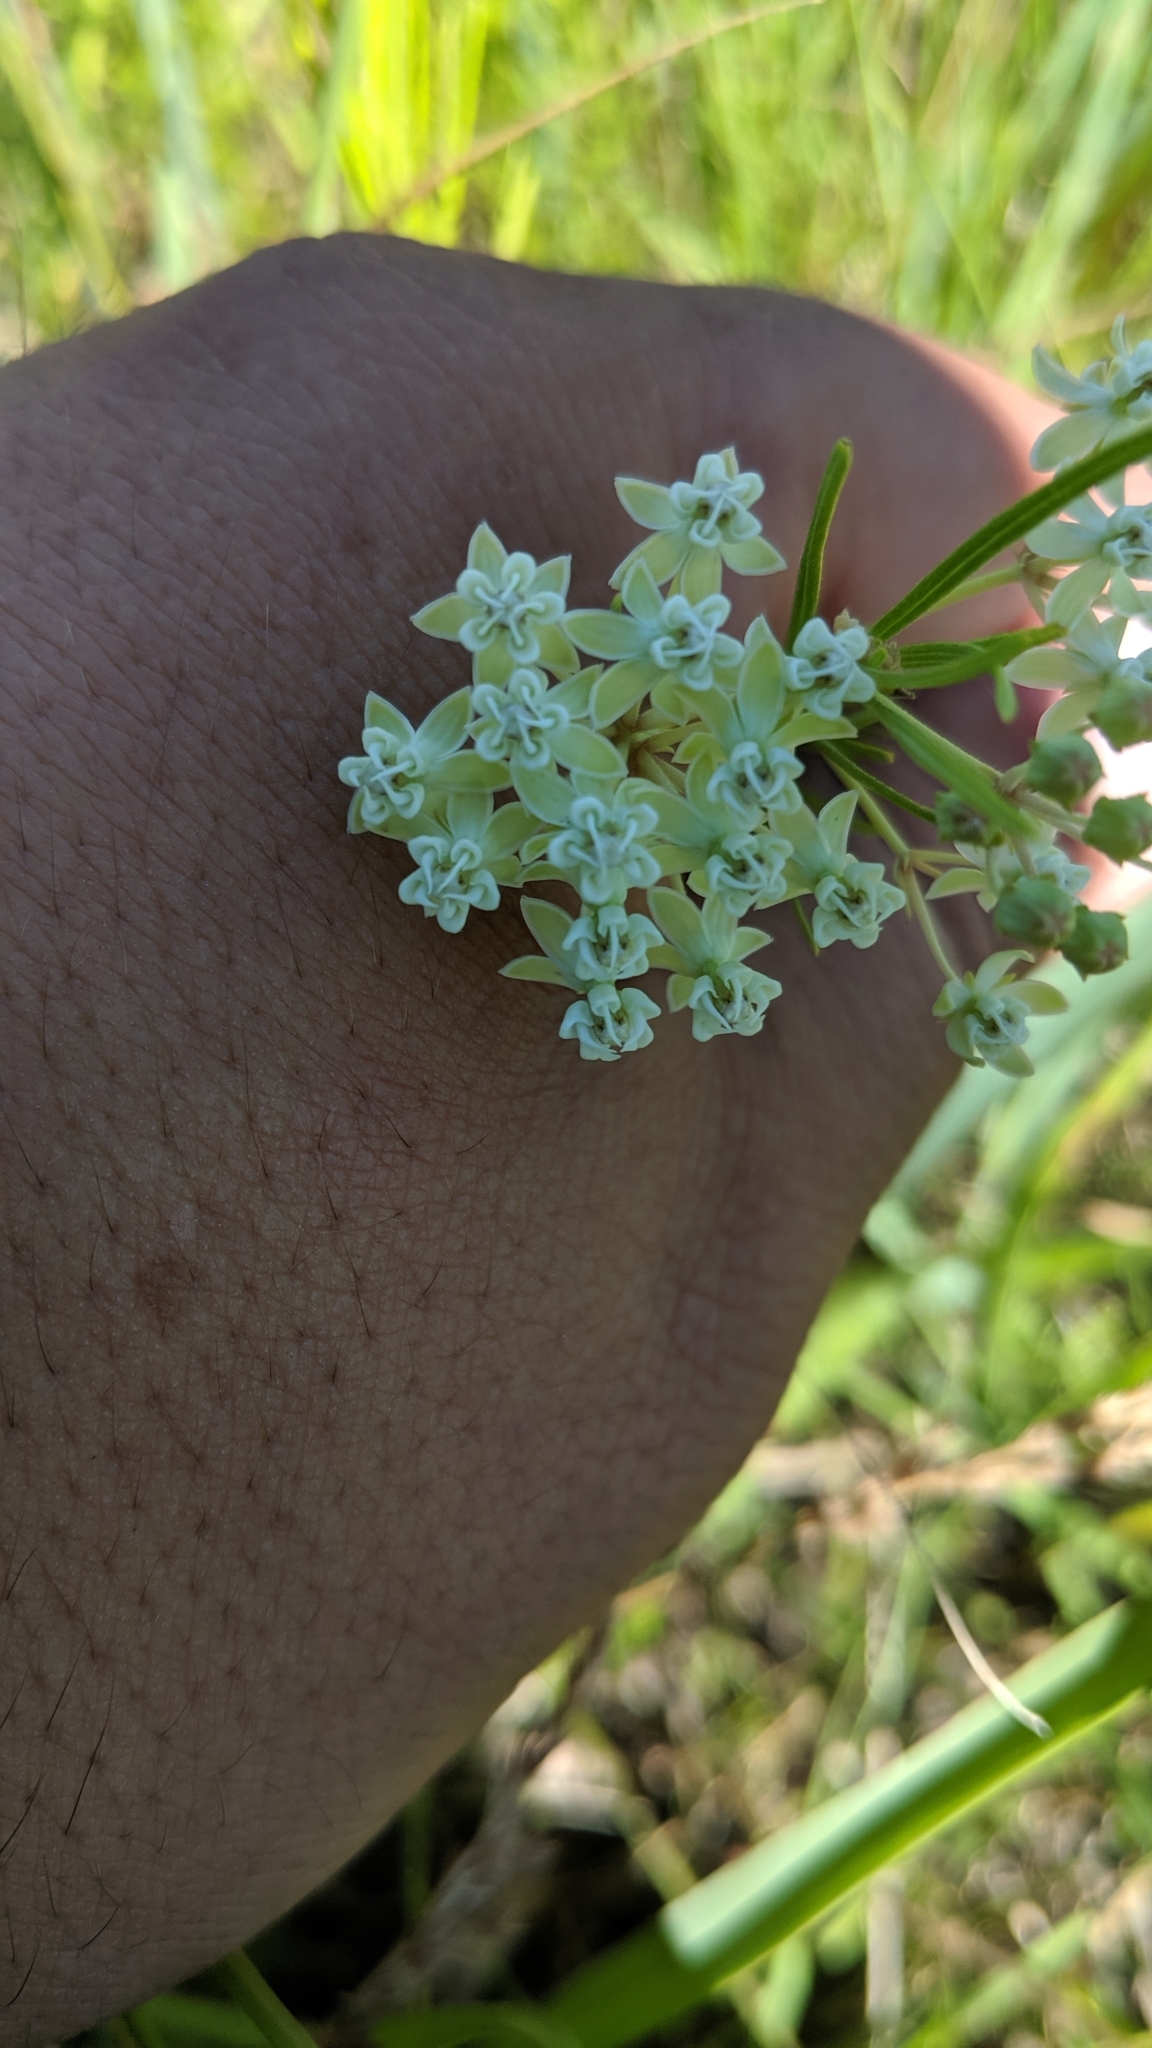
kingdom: Plantae
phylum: Tracheophyta
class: Magnoliopsida
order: Gentianales
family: Apocynaceae
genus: Asclepias
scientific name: Asclepias verticillata
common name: Eastern whorled milkweed
